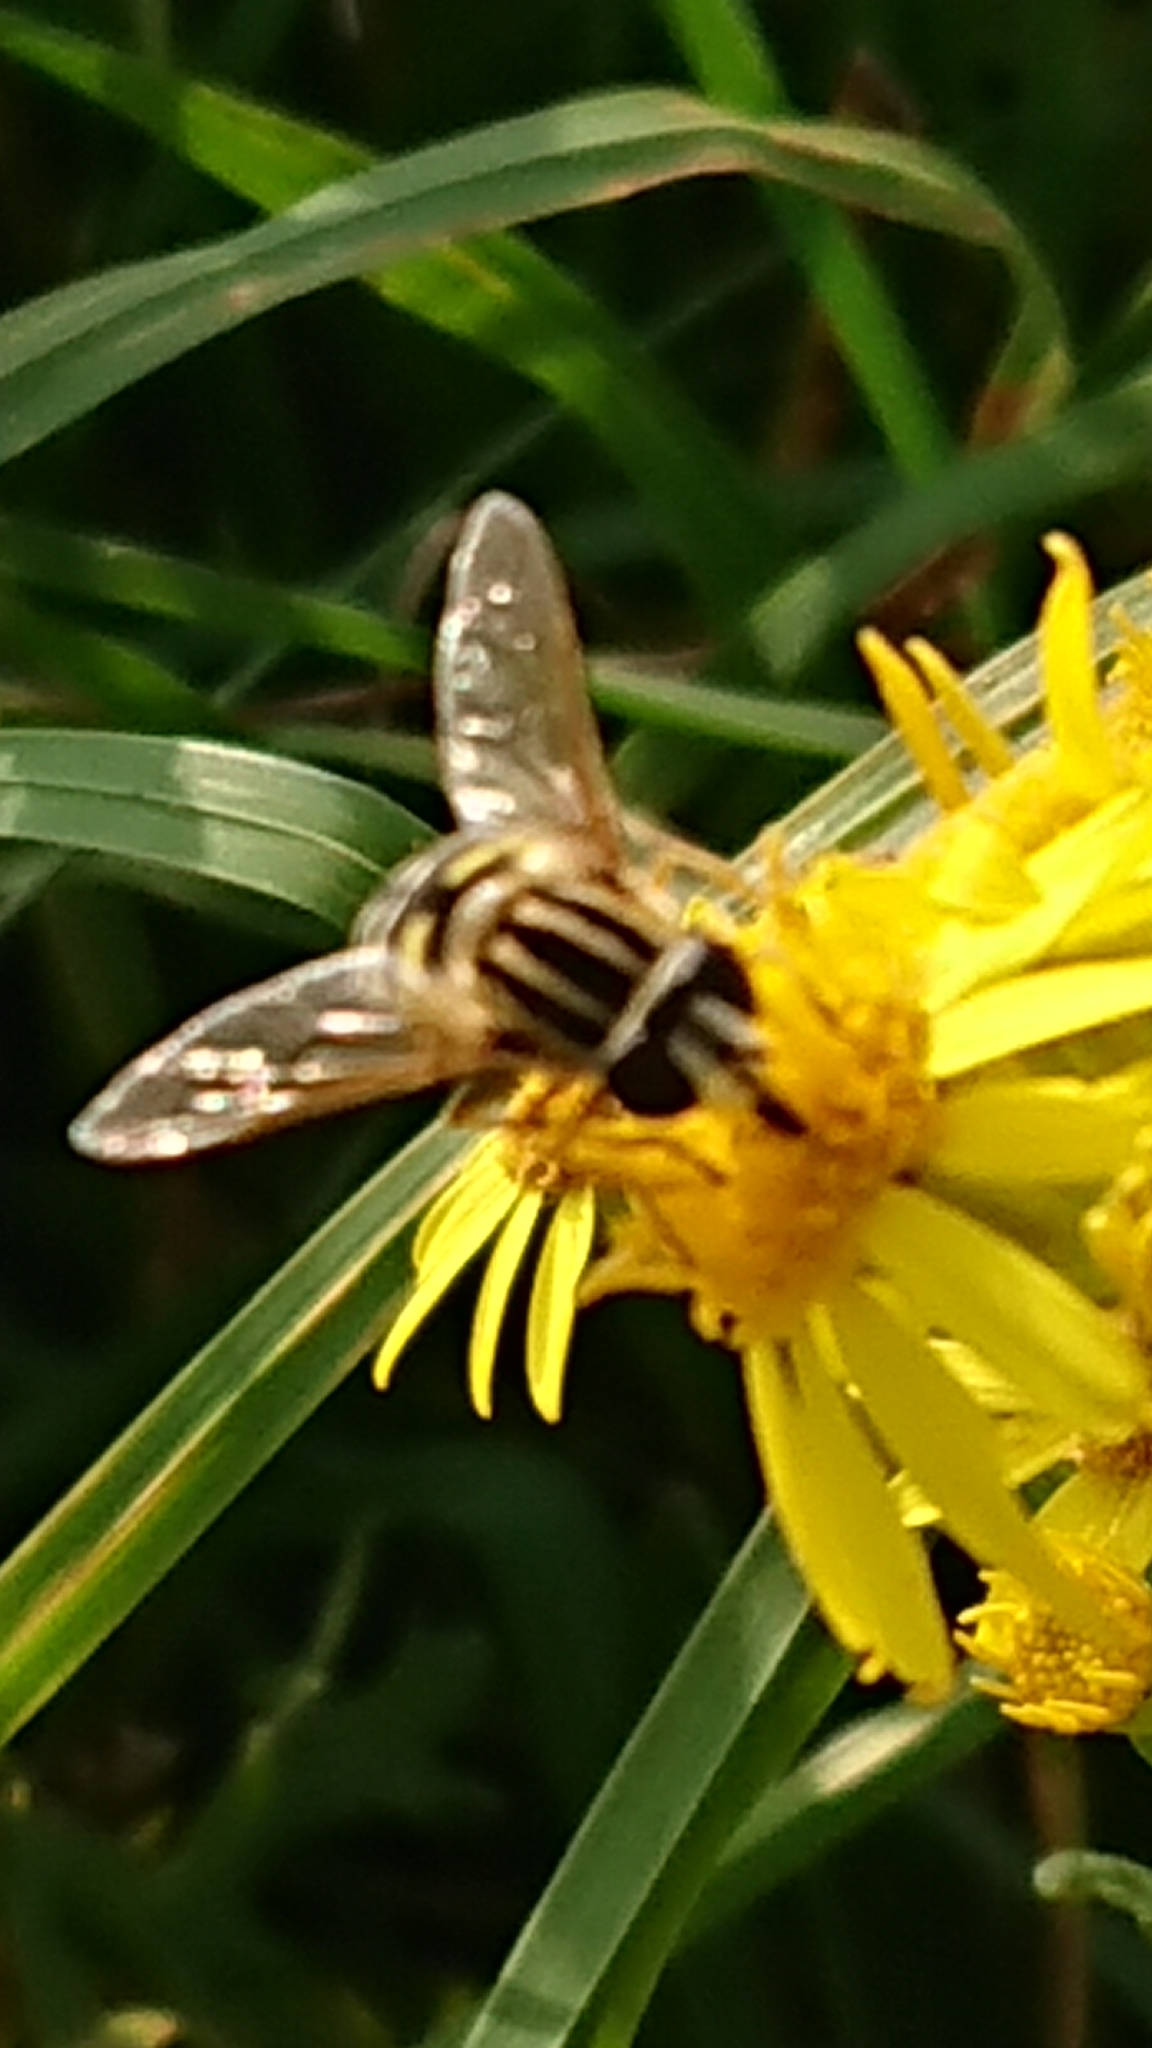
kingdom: Animalia
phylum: Arthropoda
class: Insecta
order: Diptera
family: Syrphidae
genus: Helophilus
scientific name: Helophilus pendulus
